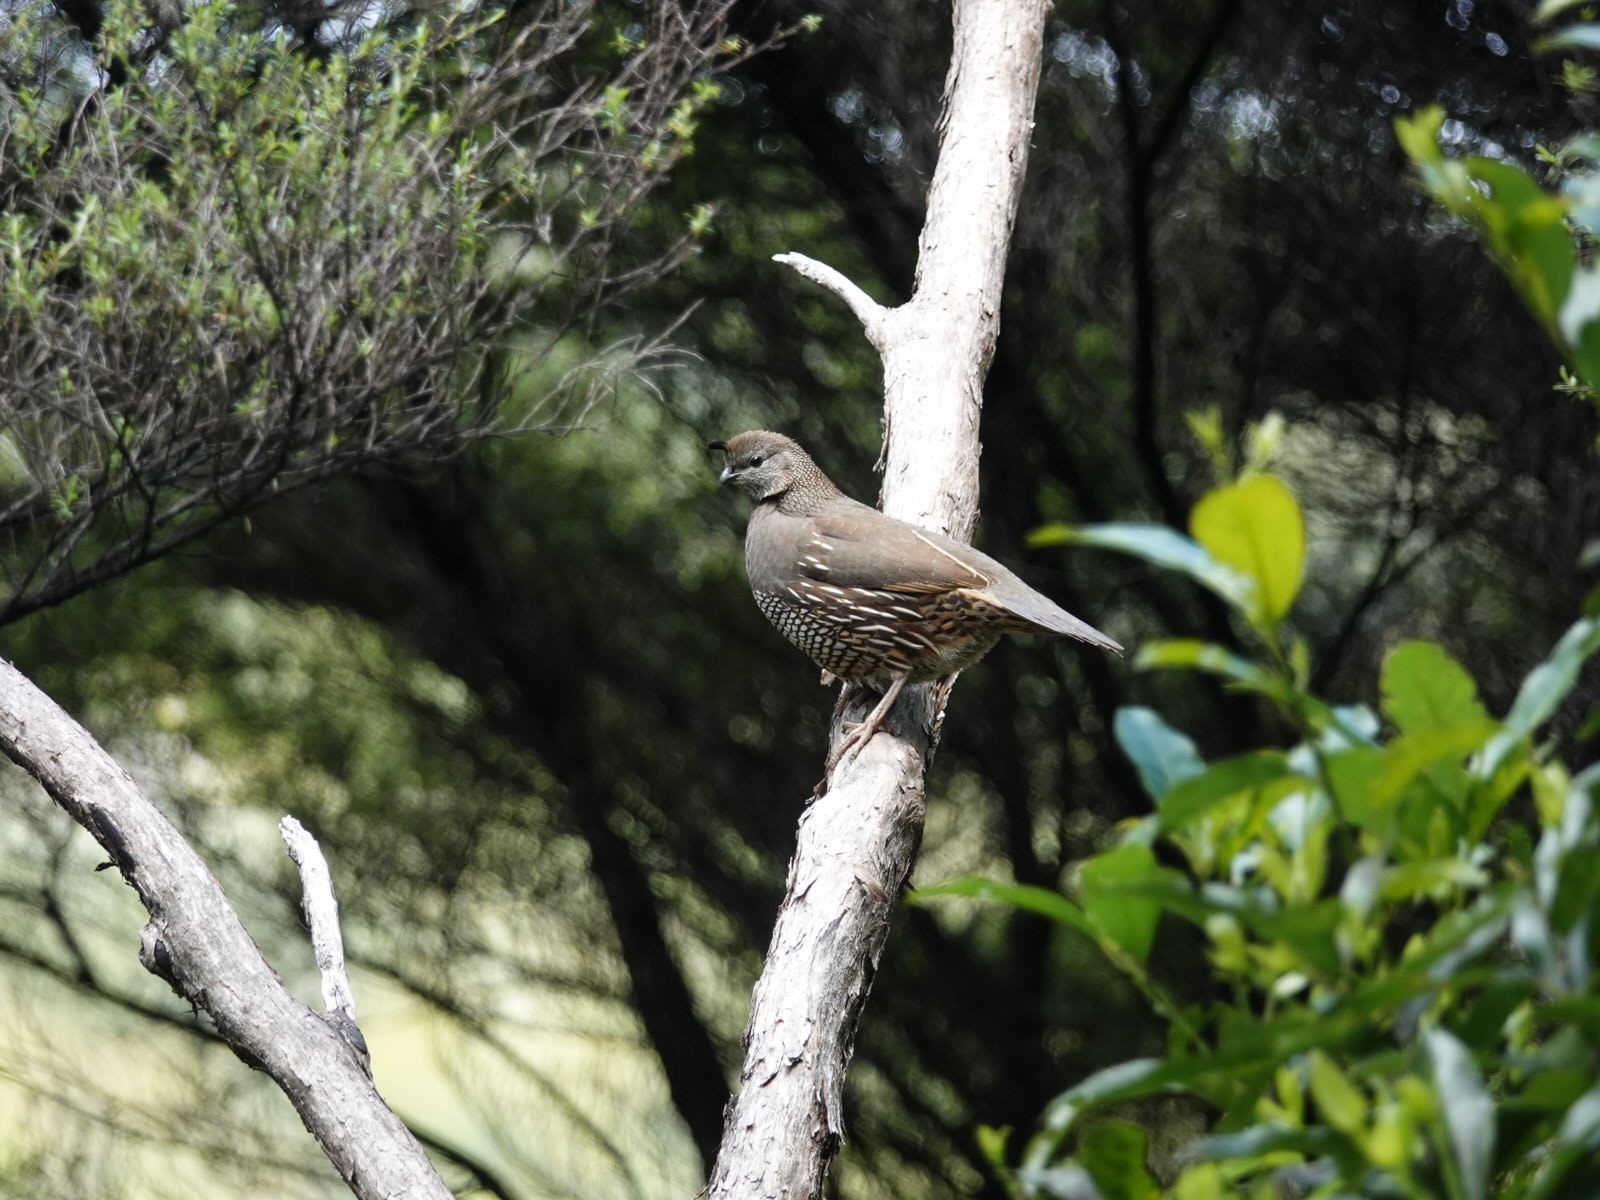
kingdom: Animalia
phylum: Chordata
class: Aves
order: Galliformes
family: Odontophoridae
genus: Callipepla
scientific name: Callipepla californica
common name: California quail
